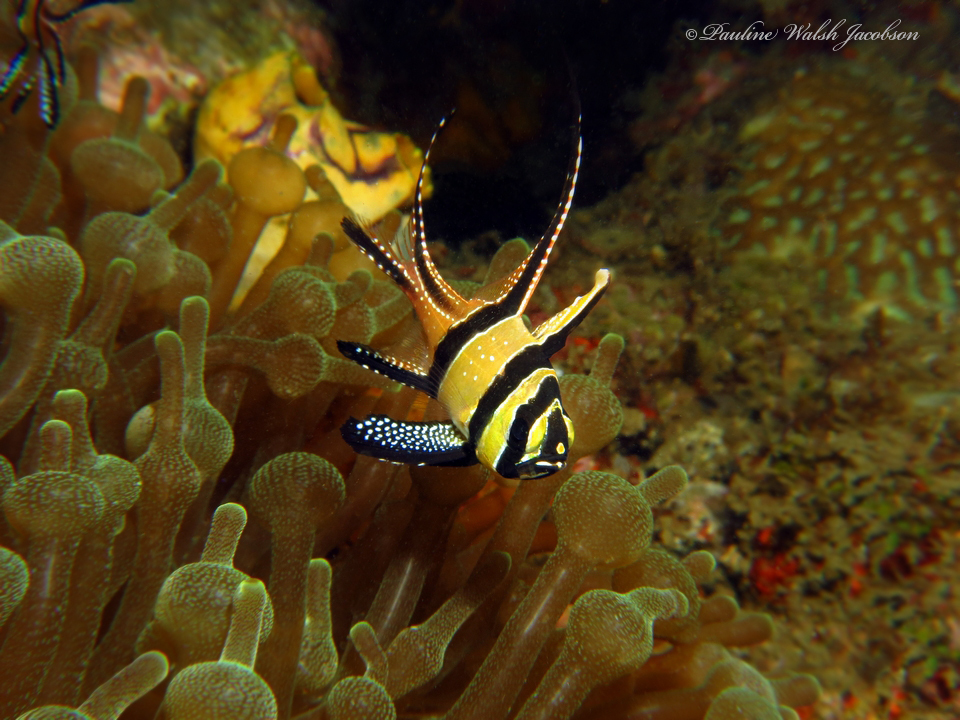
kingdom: Animalia
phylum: Chordata
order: Perciformes
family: Apogonidae
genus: Pterapogon
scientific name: Pterapogon kauderni
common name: Banggai cardinalfish
